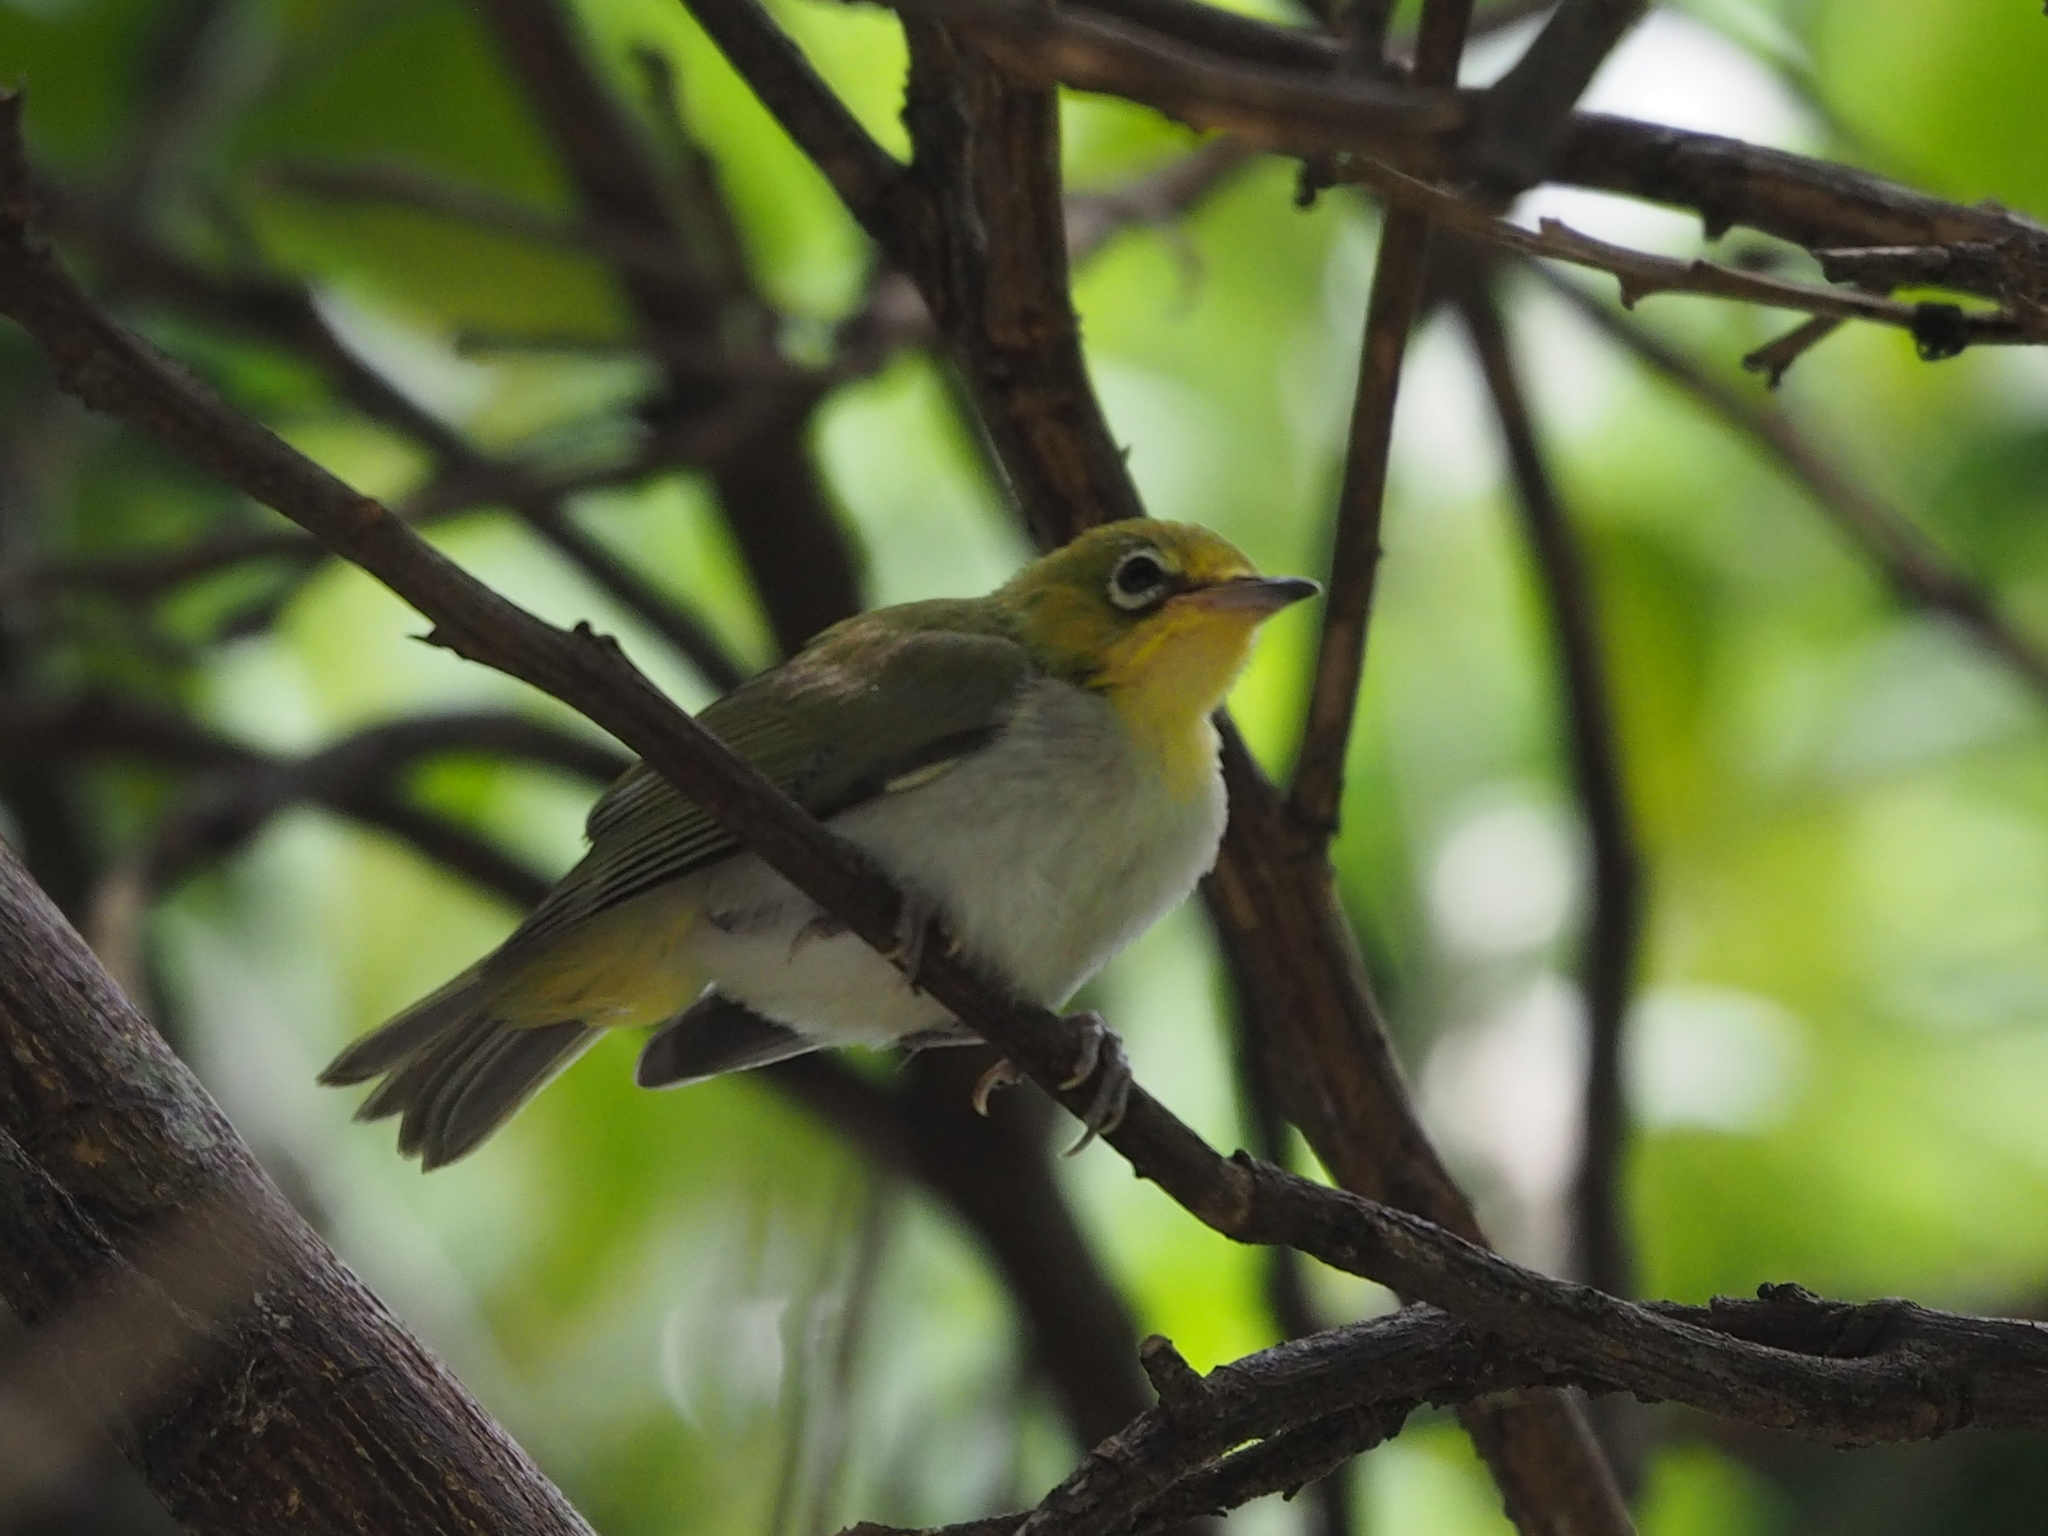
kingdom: Animalia
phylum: Chordata
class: Aves
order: Passeriformes
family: Zosteropidae
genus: Zosterops
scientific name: Zosterops simplex
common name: Swinhoe's white-eye
